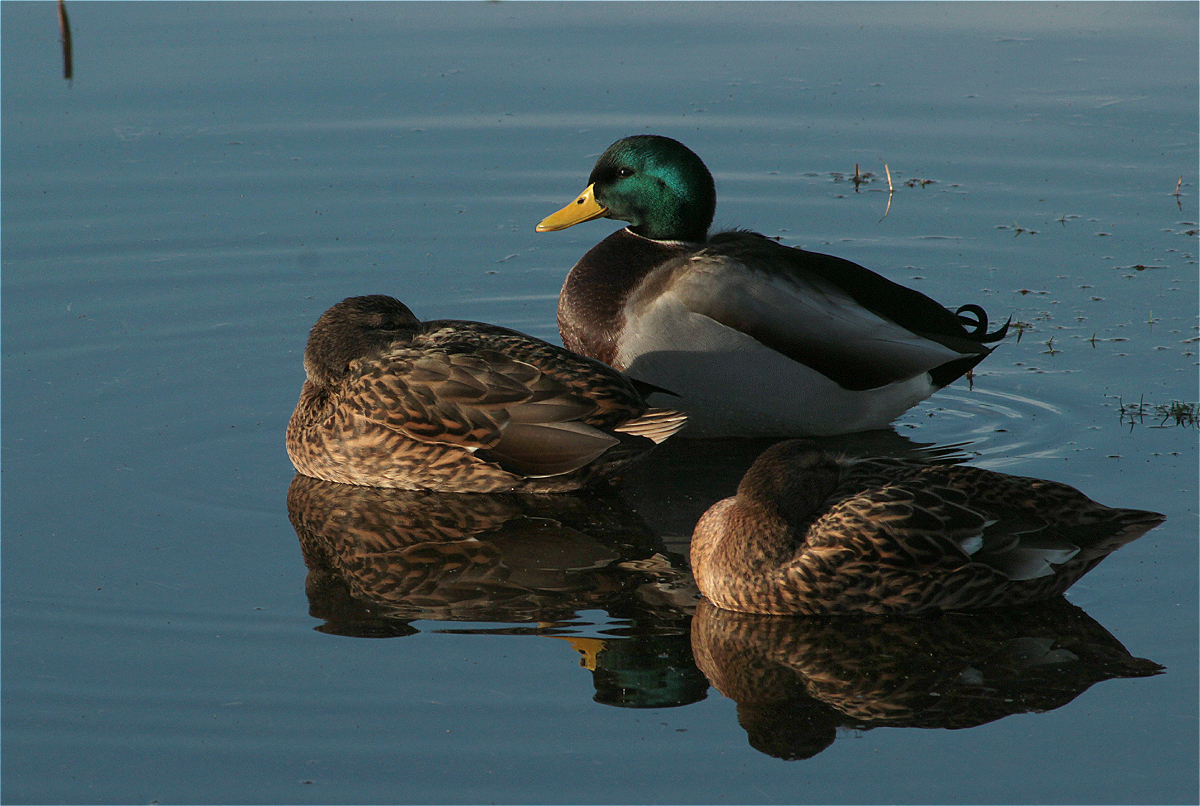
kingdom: Animalia
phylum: Chordata
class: Aves
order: Anseriformes
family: Anatidae
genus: Anas
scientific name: Anas platyrhynchos
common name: Mallard
